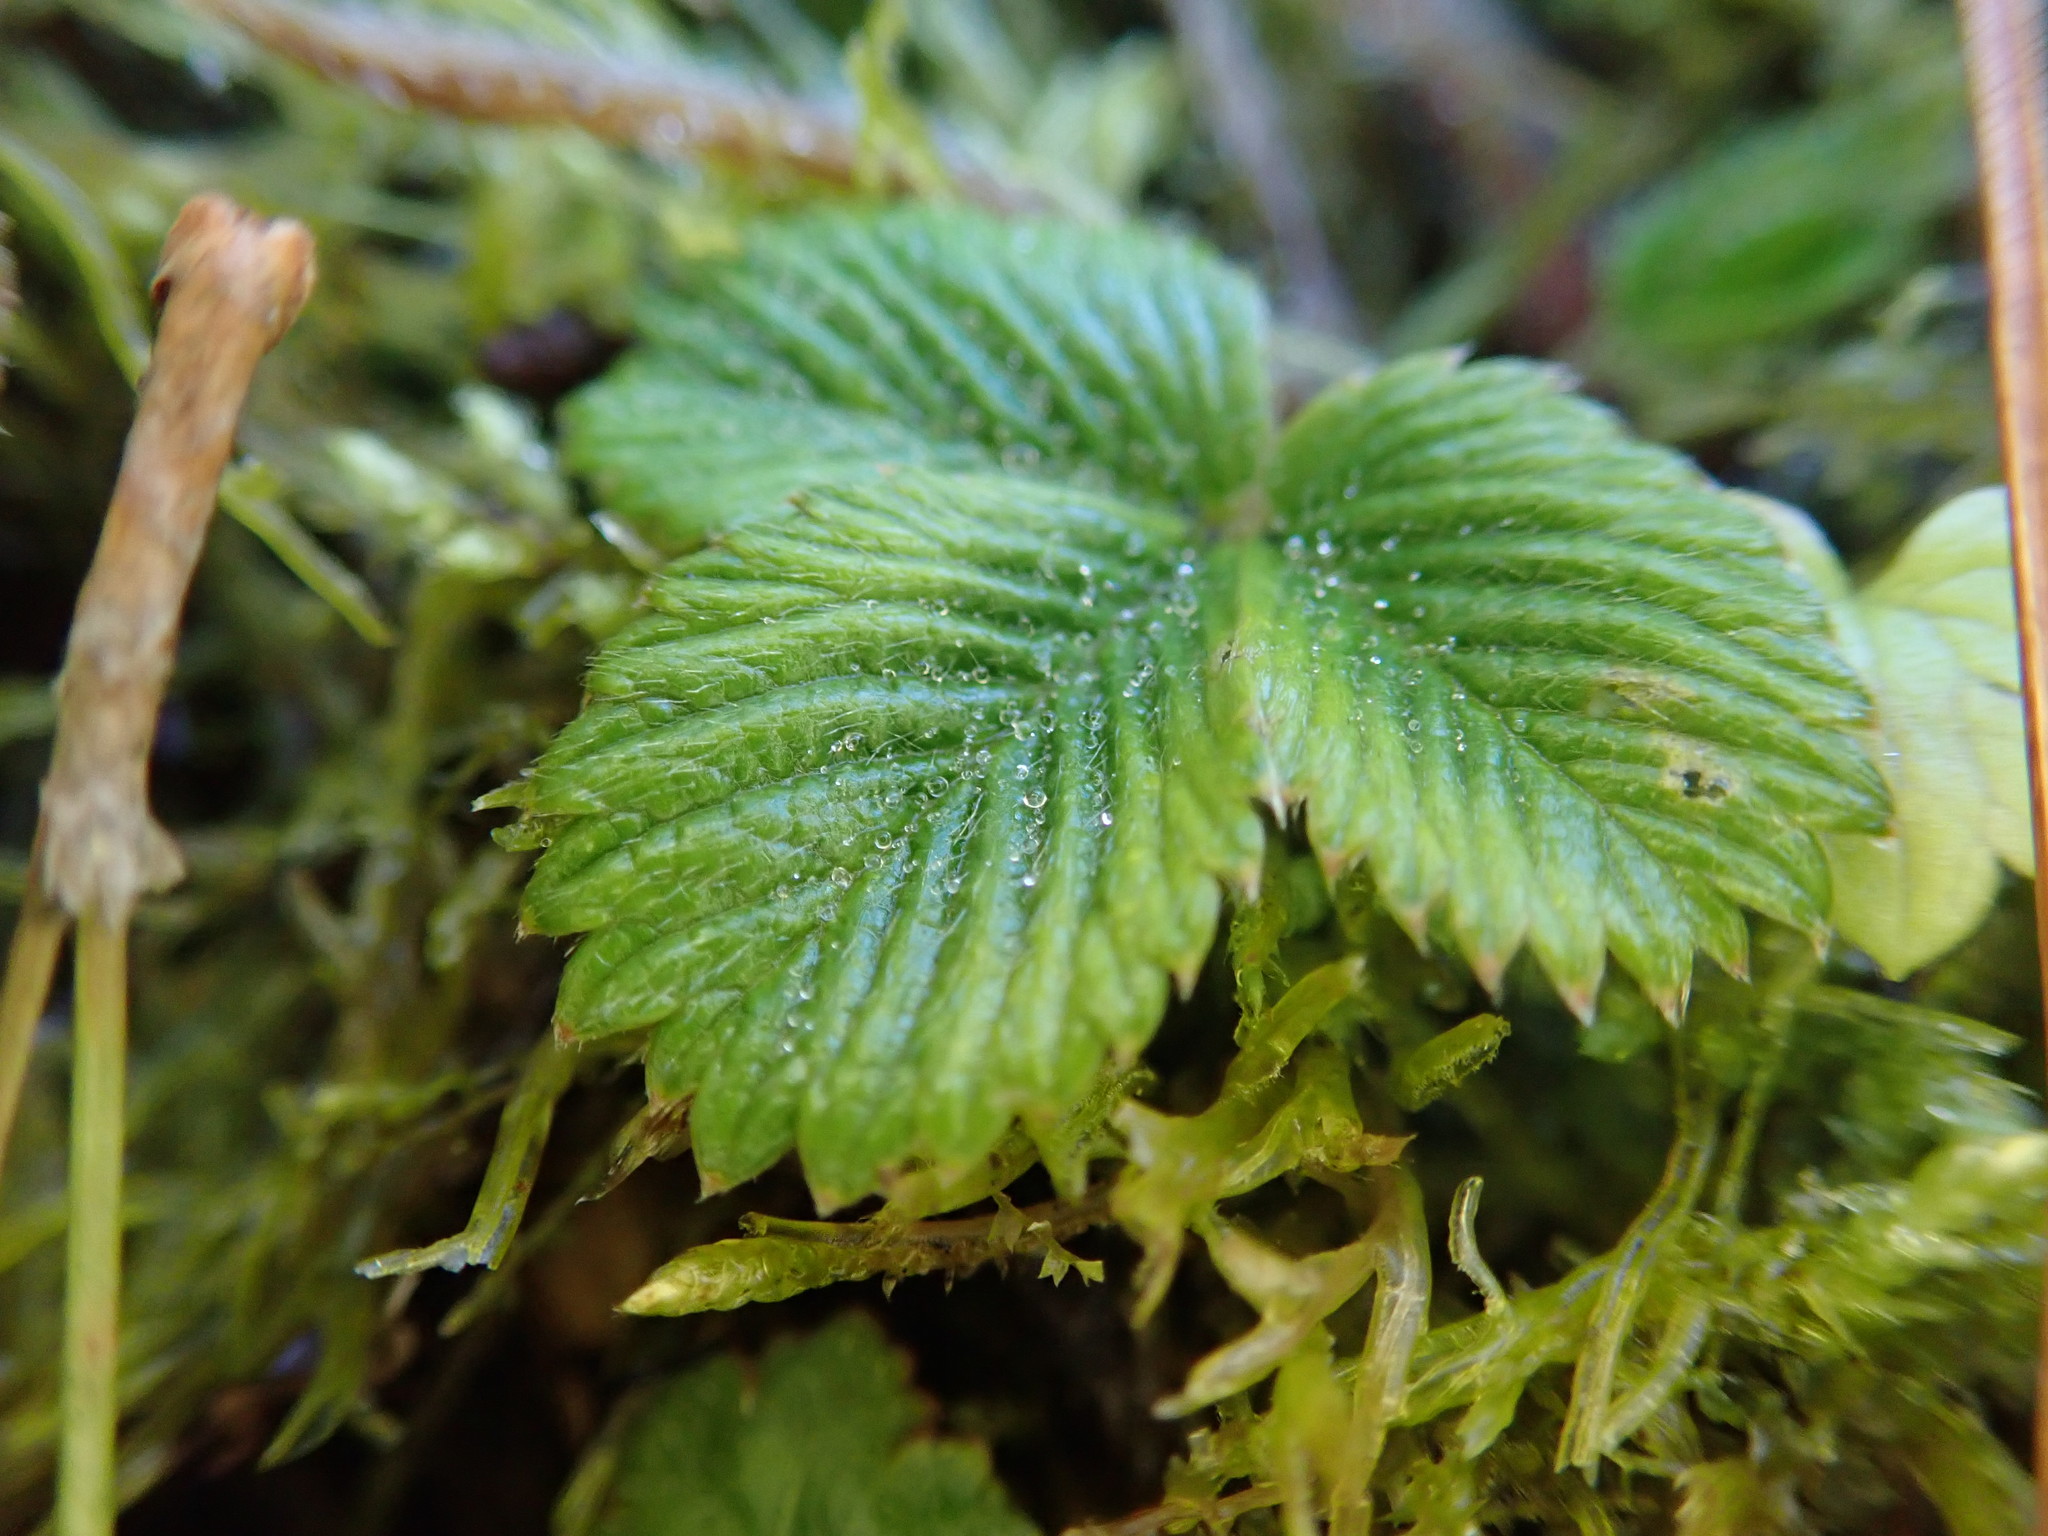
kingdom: Plantae
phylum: Tracheophyta
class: Magnoliopsida
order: Rosales
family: Rosaceae
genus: Fragaria
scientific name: Fragaria nilgerrensis
